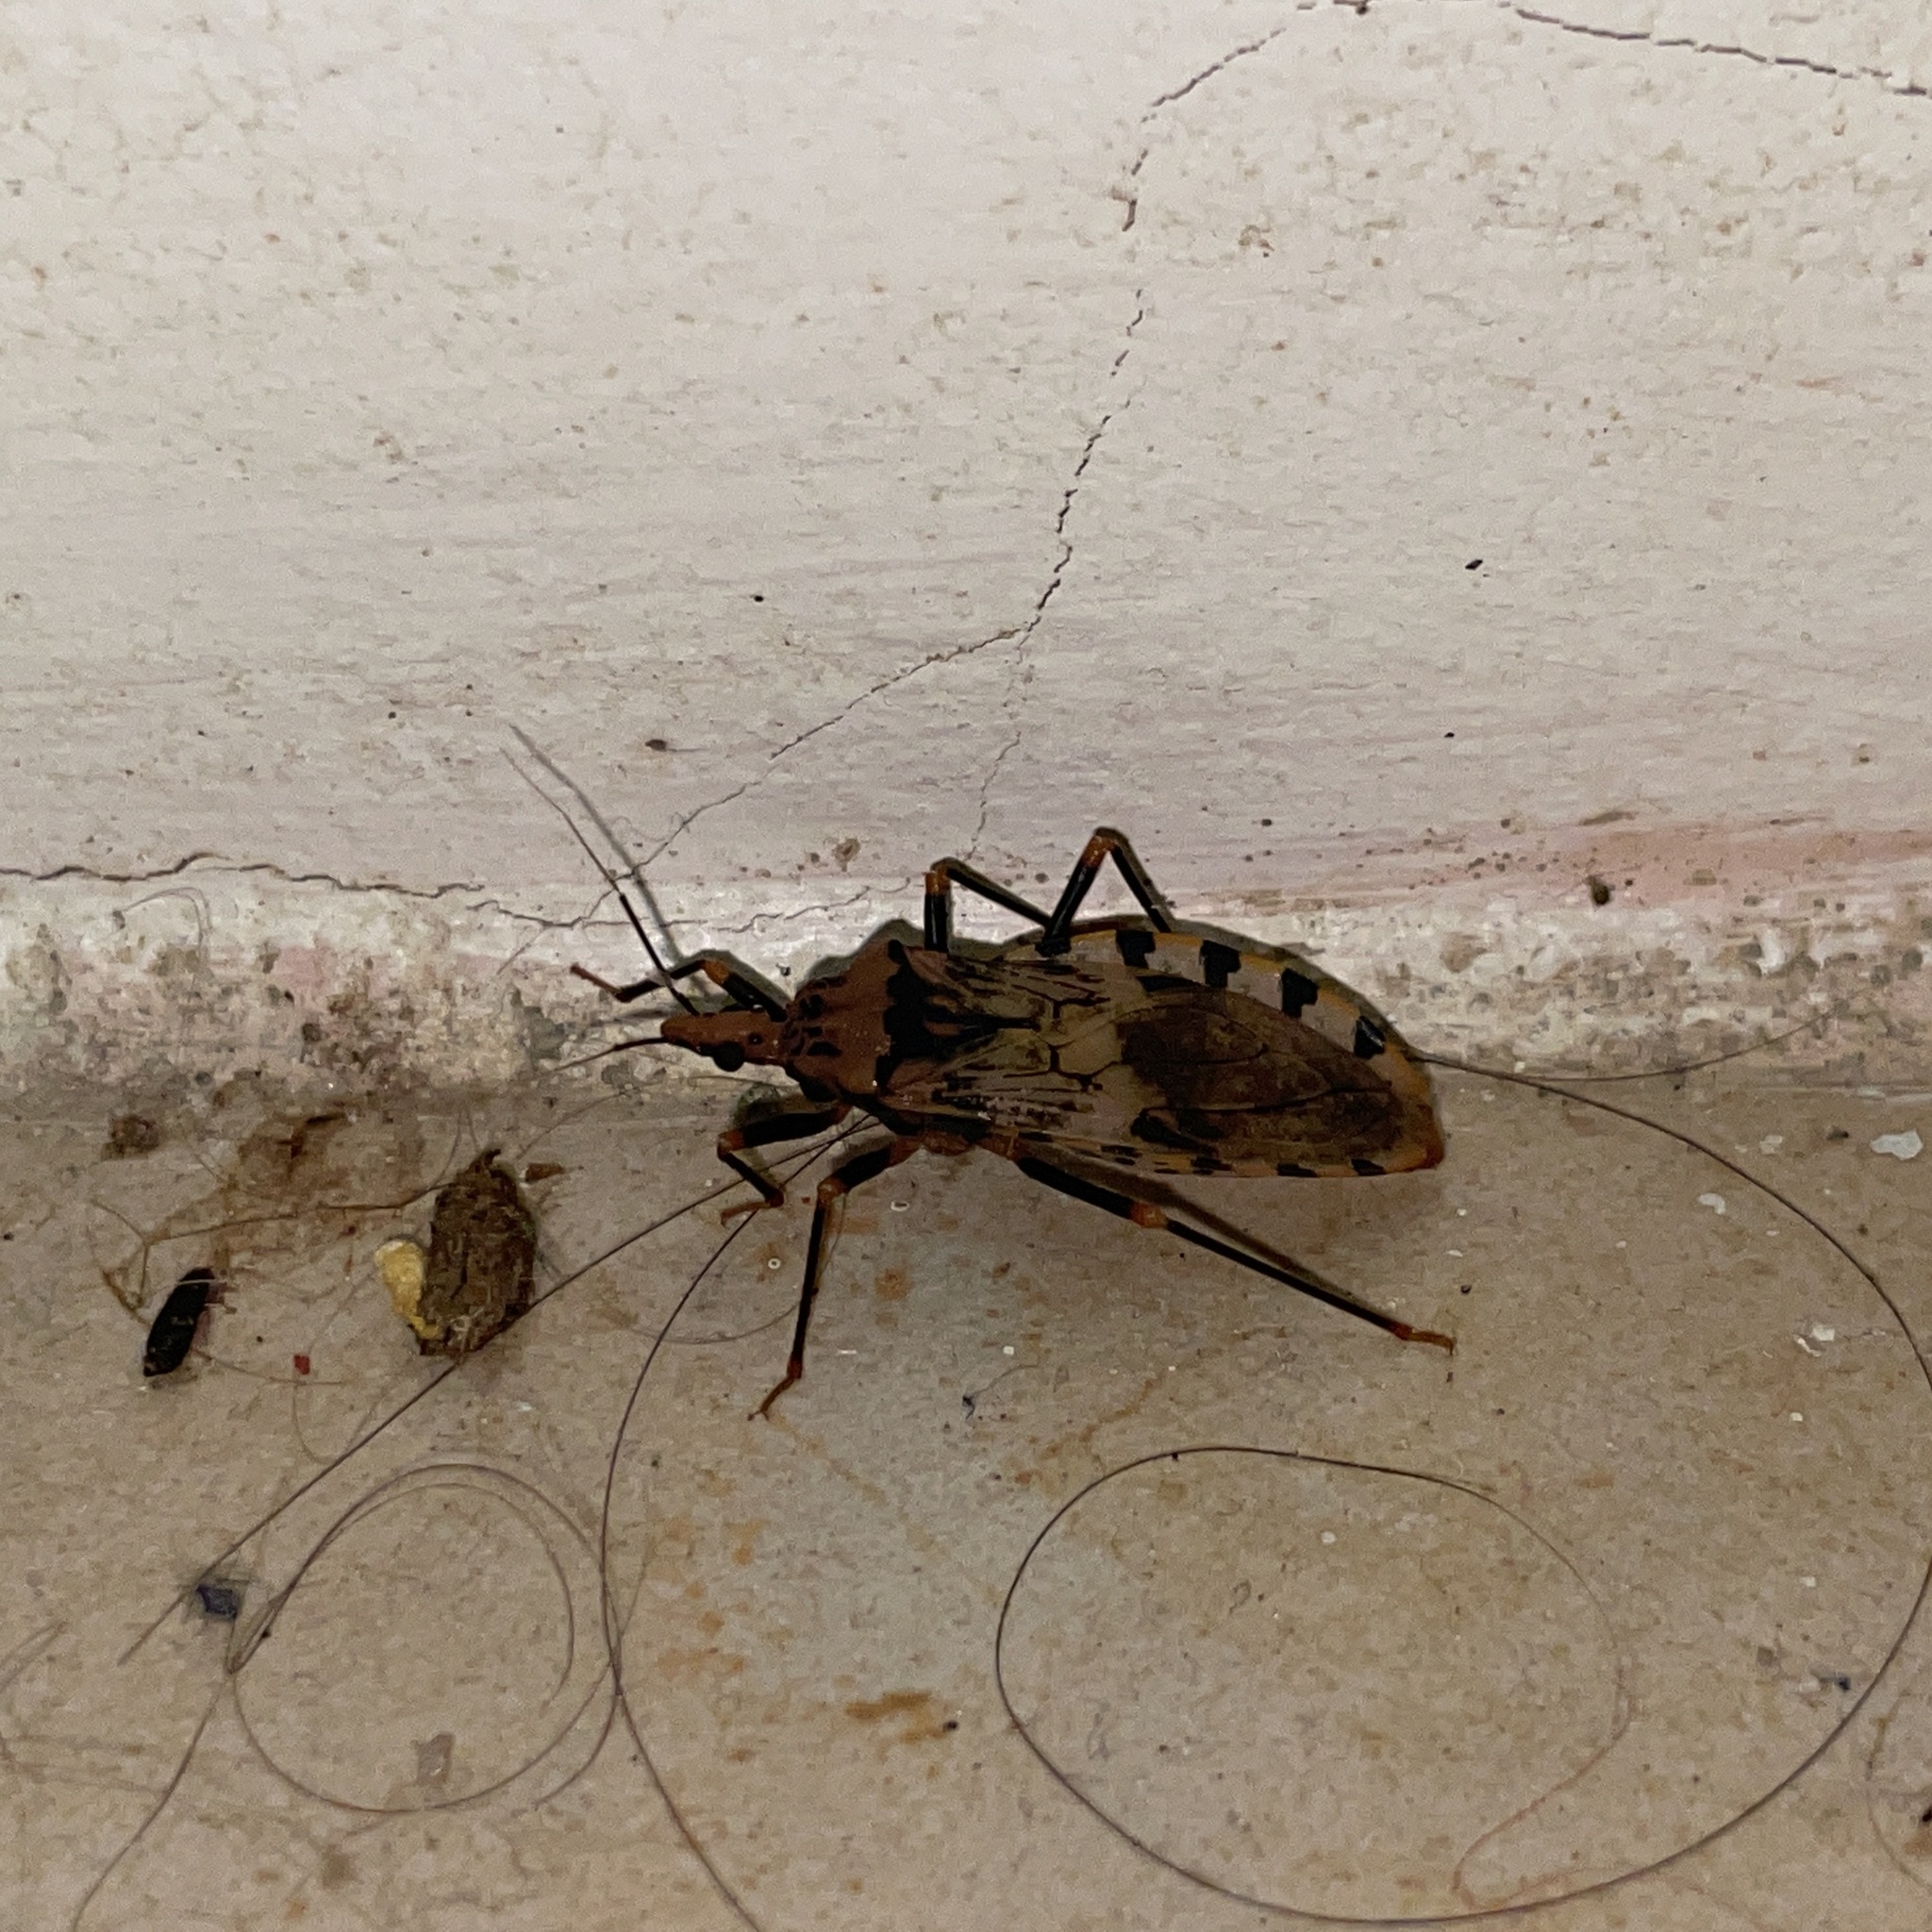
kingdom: Animalia
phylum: Arthropoda
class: Insecta
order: Hemiptera
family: Reduviidae
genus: Panstrongylus
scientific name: Panstrongylus geniculatus
